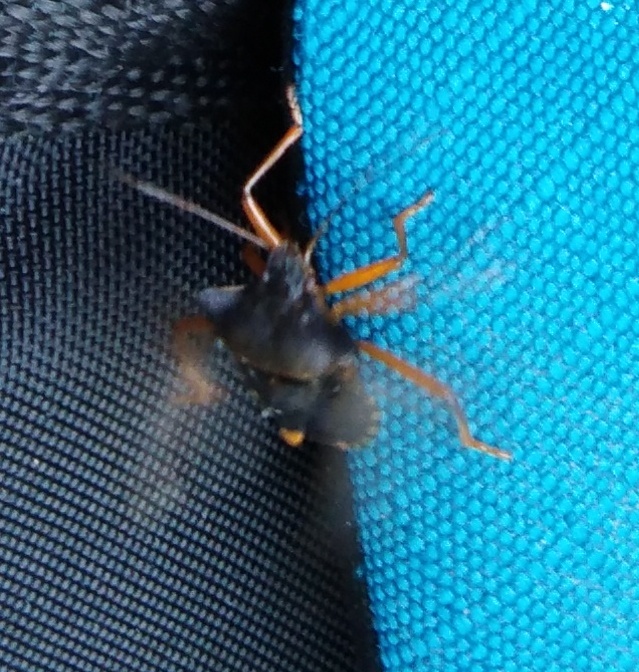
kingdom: Animalia
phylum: Arthropoda
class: Insecta
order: Hemiptera
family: Pentatomidae
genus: Pentatoma
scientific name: Pentatoma rufipes
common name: Forest bug
